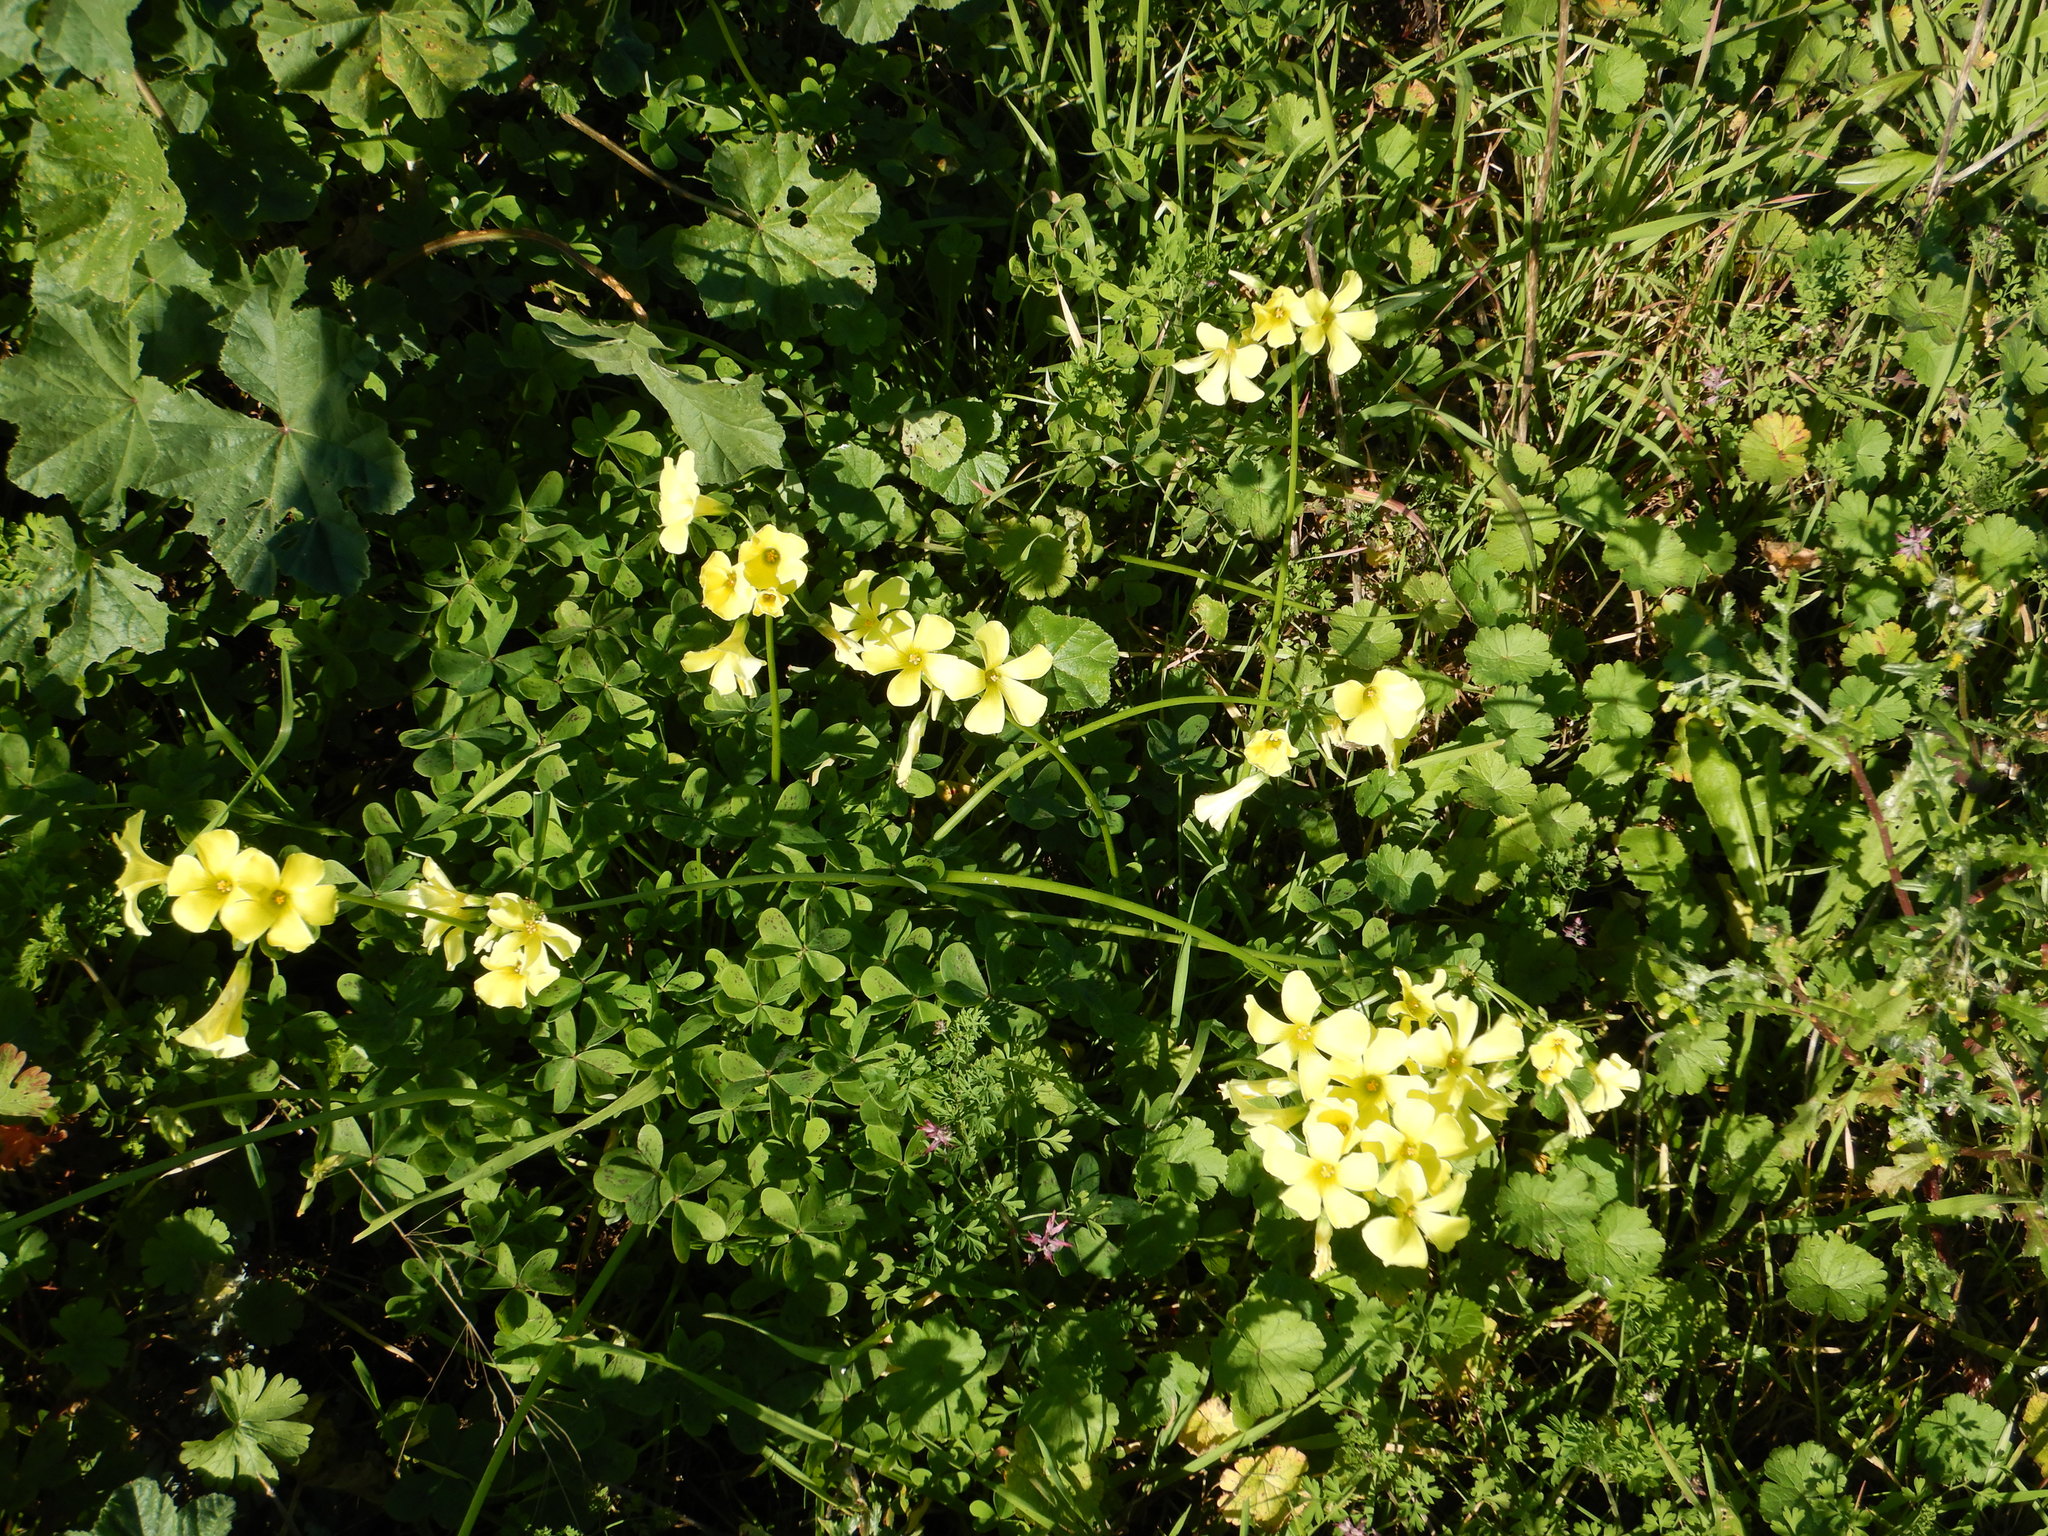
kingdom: Plantae
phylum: Tracheophyta
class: Magnoliopsida
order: Oxalidales
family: Oxalidaceae
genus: Oxalis
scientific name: Oxalis pes-caprae
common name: Bermuda-buttercup
